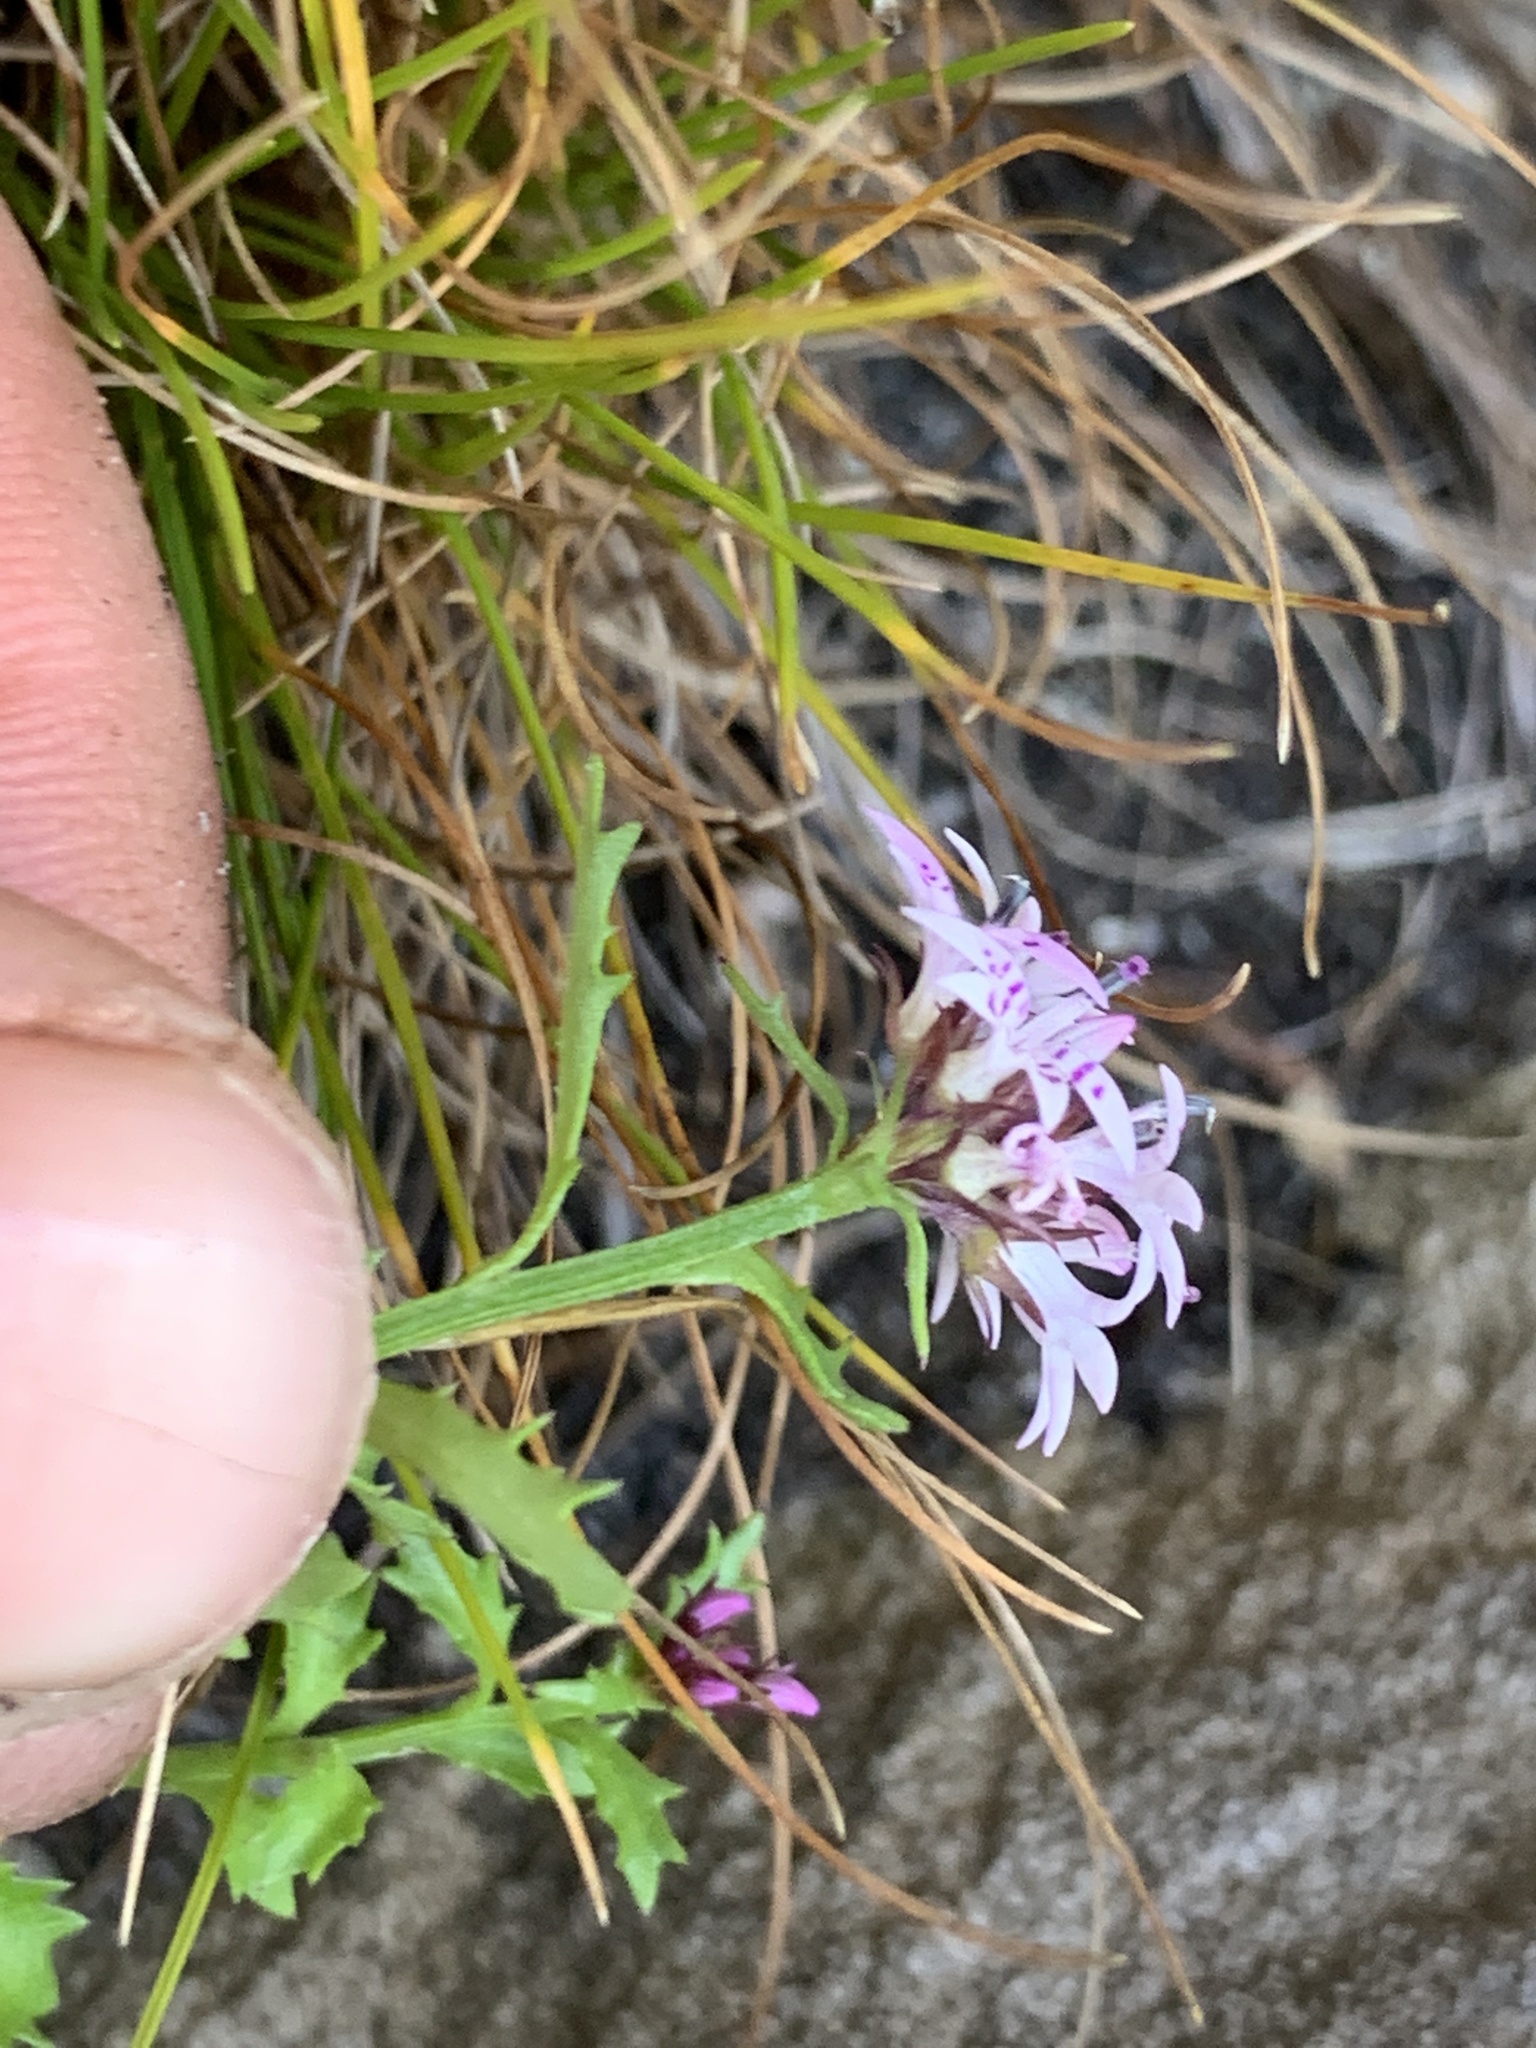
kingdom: Plantae
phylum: Tracheophyta
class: Magnoliopsida
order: Asterales
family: Campanulaceae
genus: Lobelia
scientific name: Lobelia jasionoides
